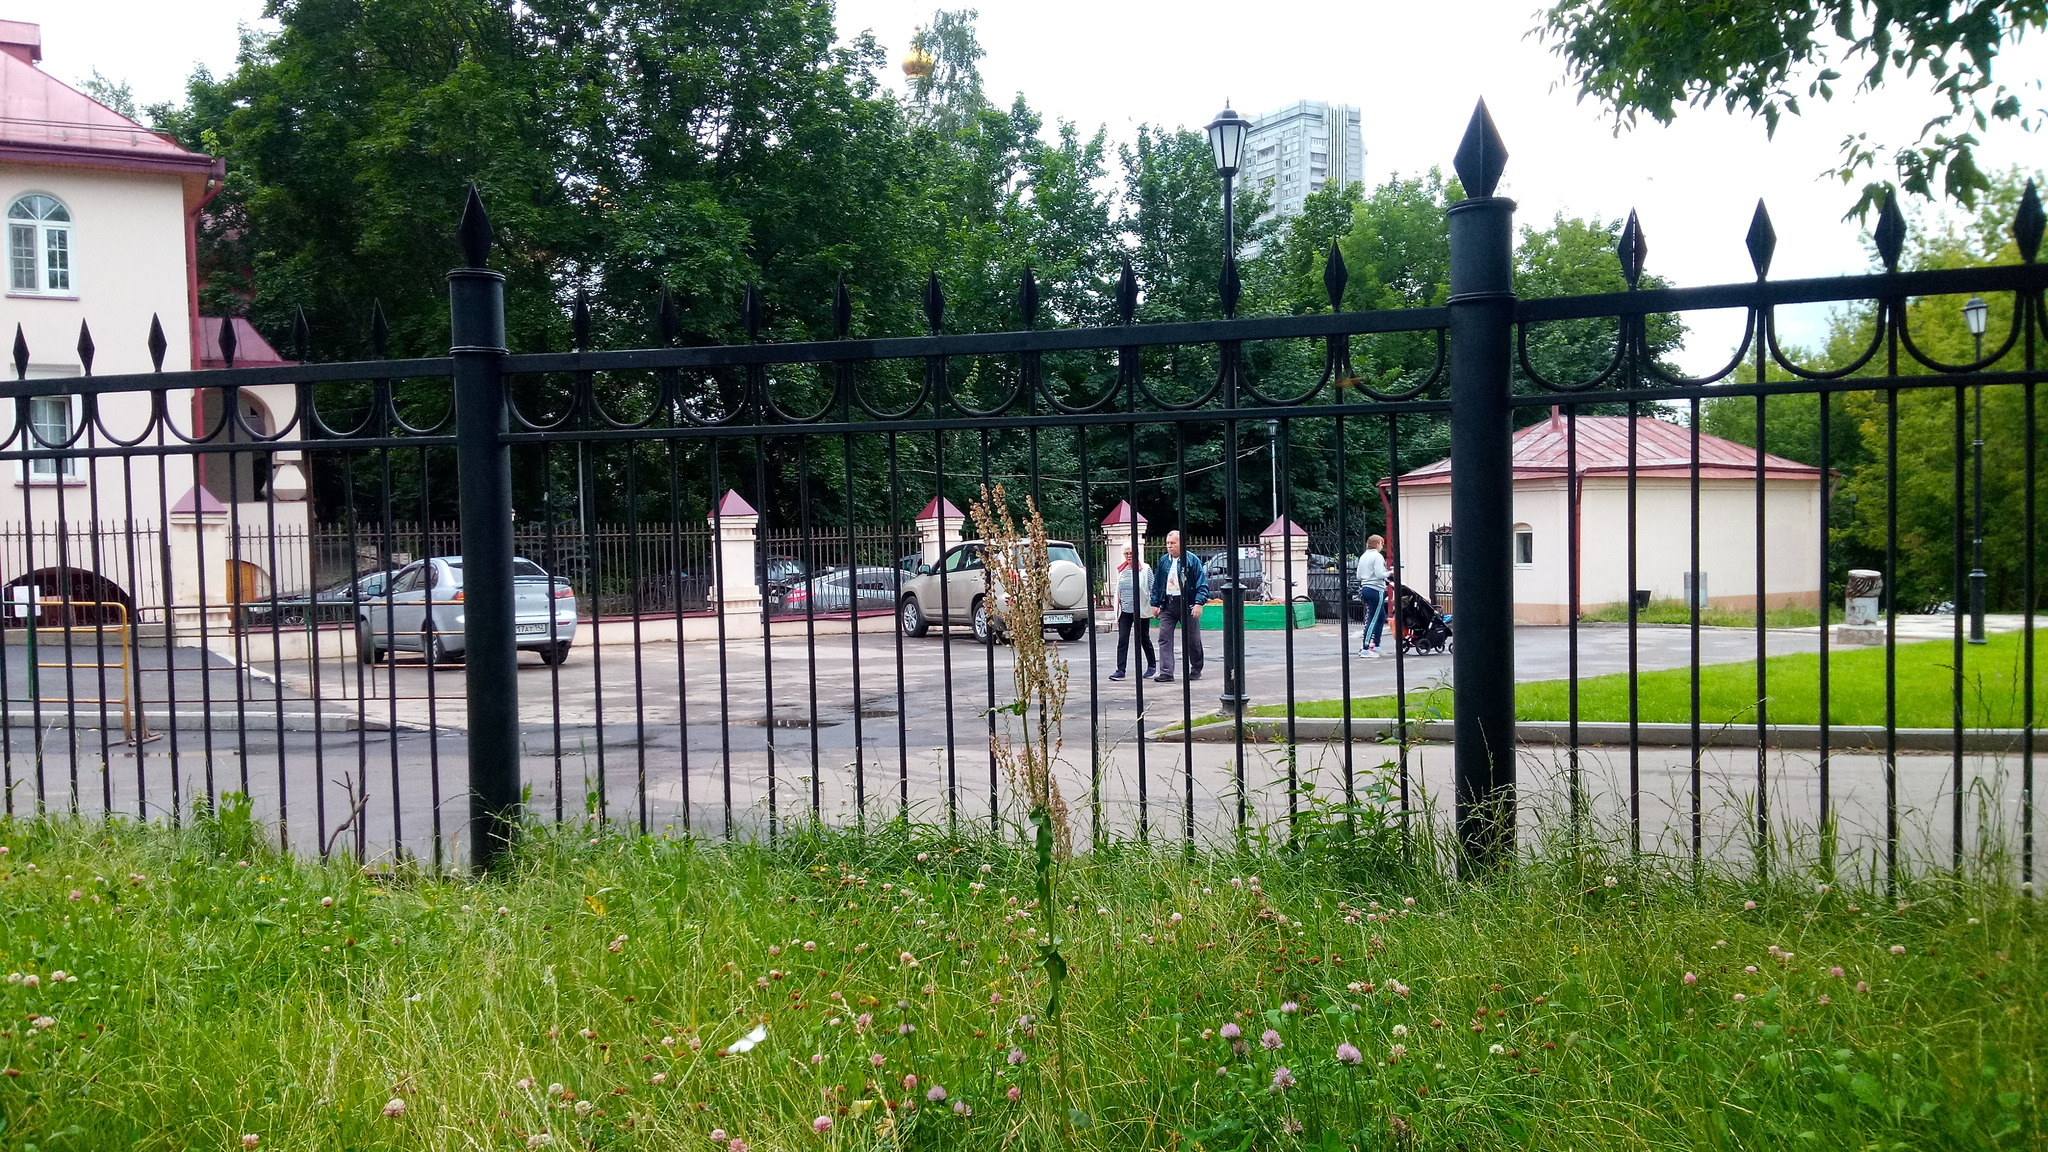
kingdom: Plantae
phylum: Tracheophyta
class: Magnoliopsida
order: Caryophyllales
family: Polygonaceae
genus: Rumex
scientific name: Rumex acetosa
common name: Garden sorrel
